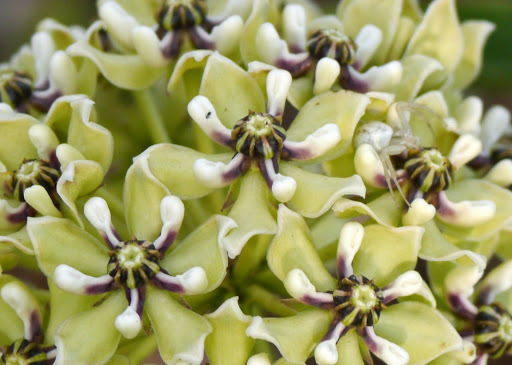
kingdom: Plantae
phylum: Tracheophyta
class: Magnoliopsida
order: Gentianales
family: Apocynaceae
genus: Asclepias
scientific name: Asclepias asperula
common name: Antelope horns
